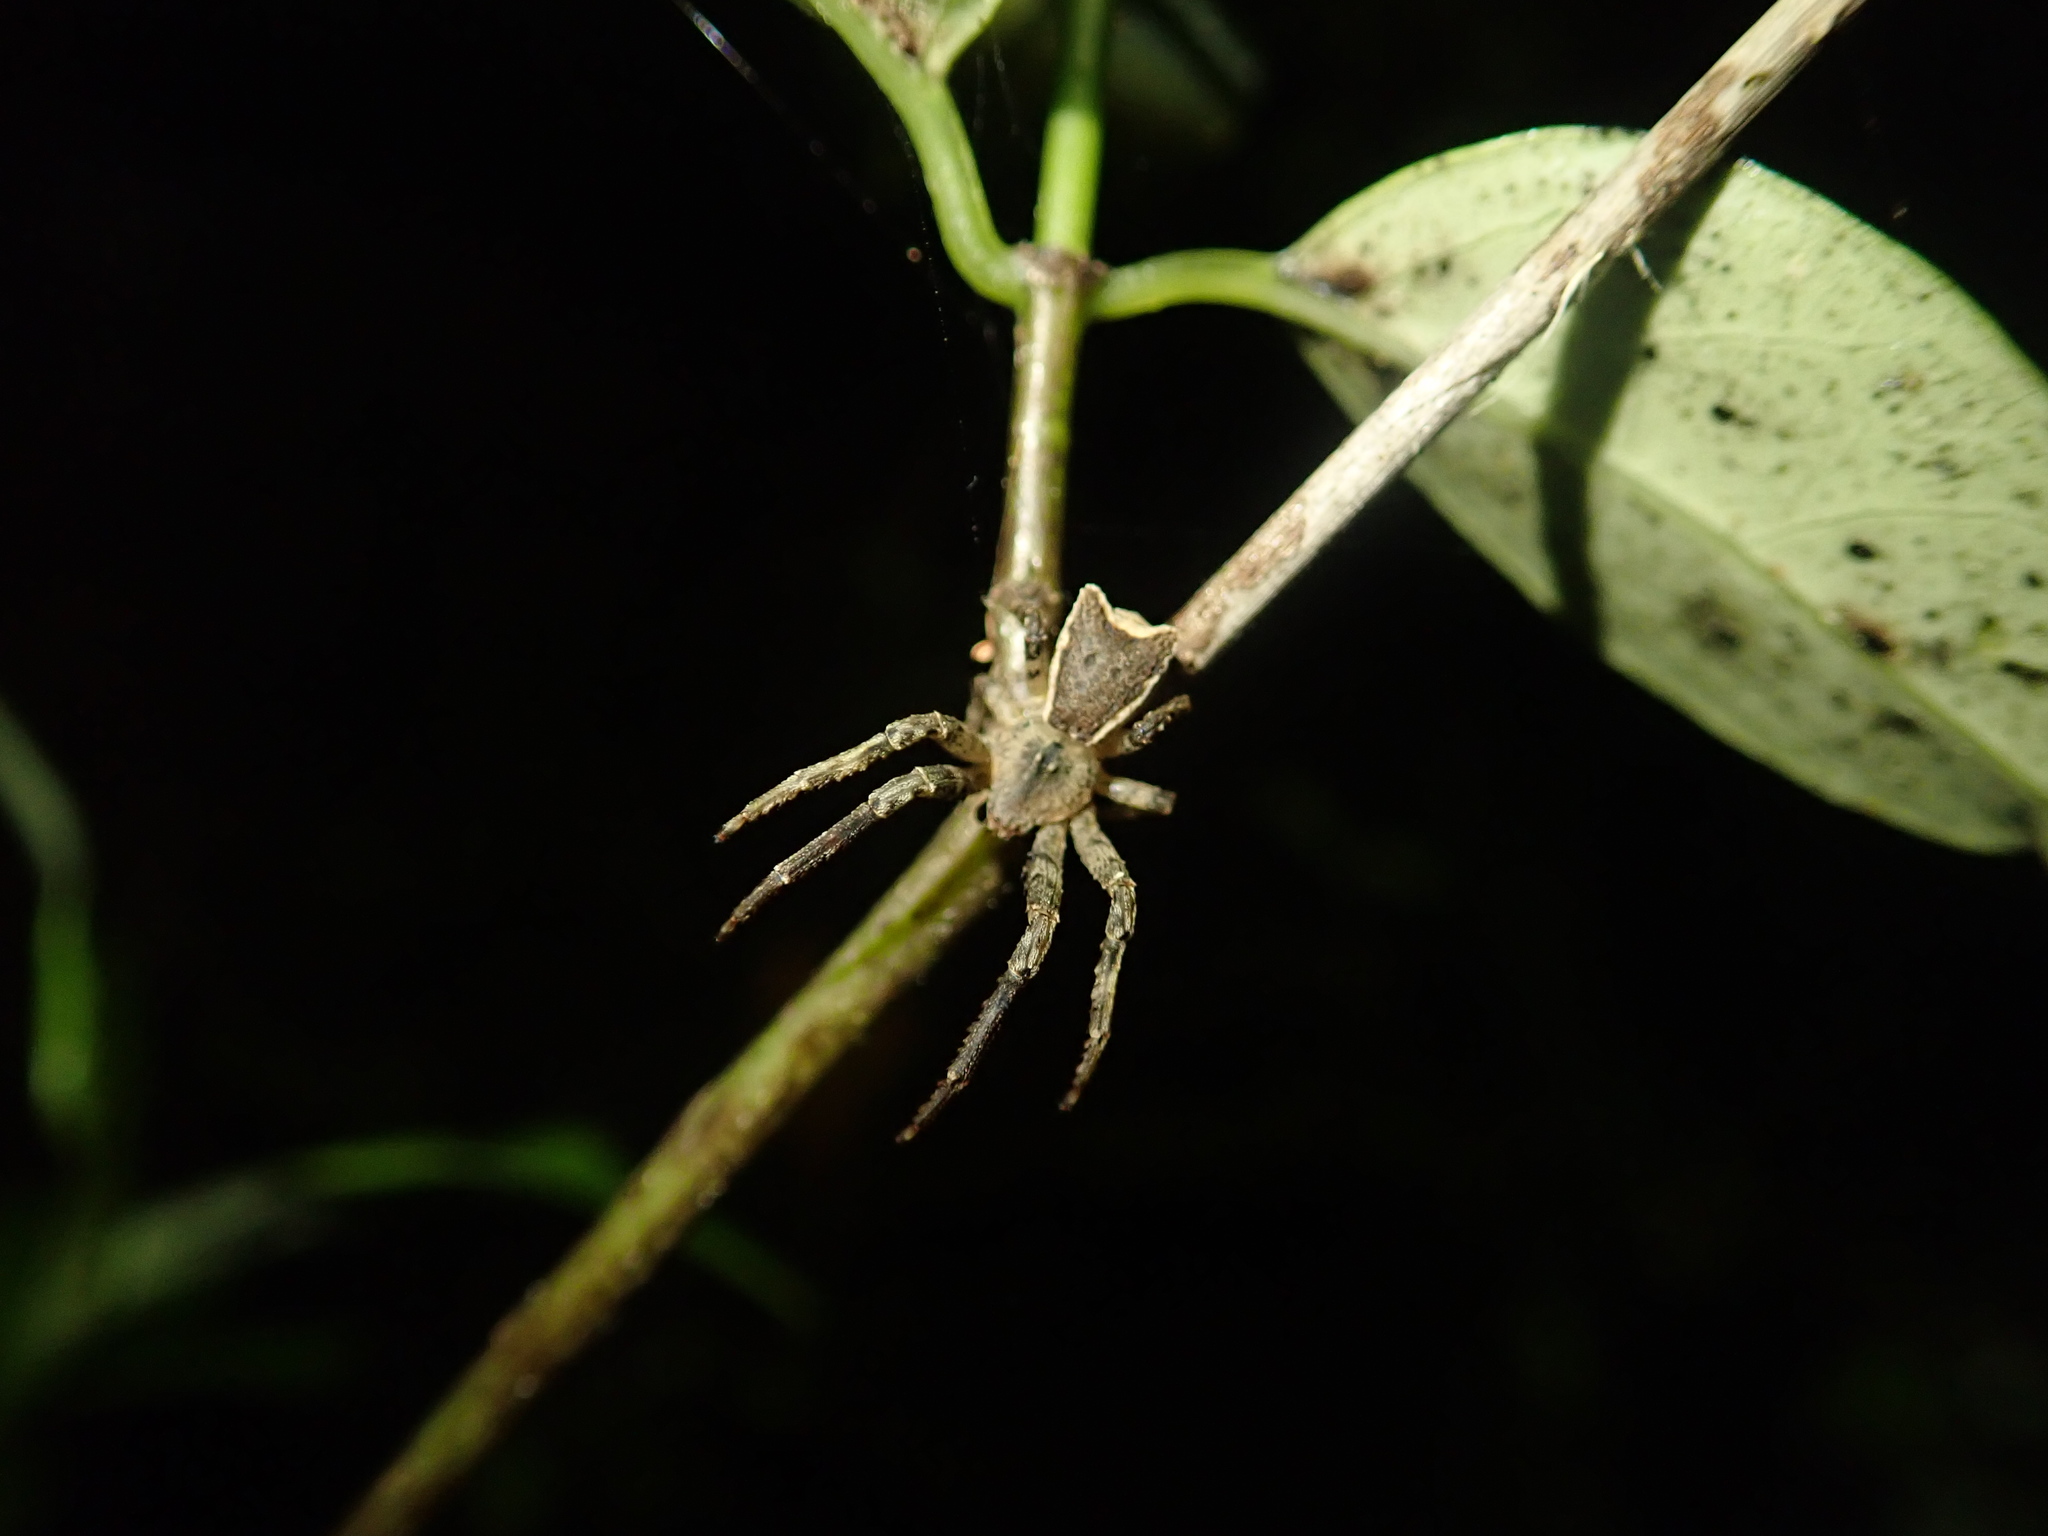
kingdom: Animalia
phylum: Arthropoda
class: Arachnida
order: Araneae
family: Thomisidae
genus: Sidymella
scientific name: Sidymella angularis
